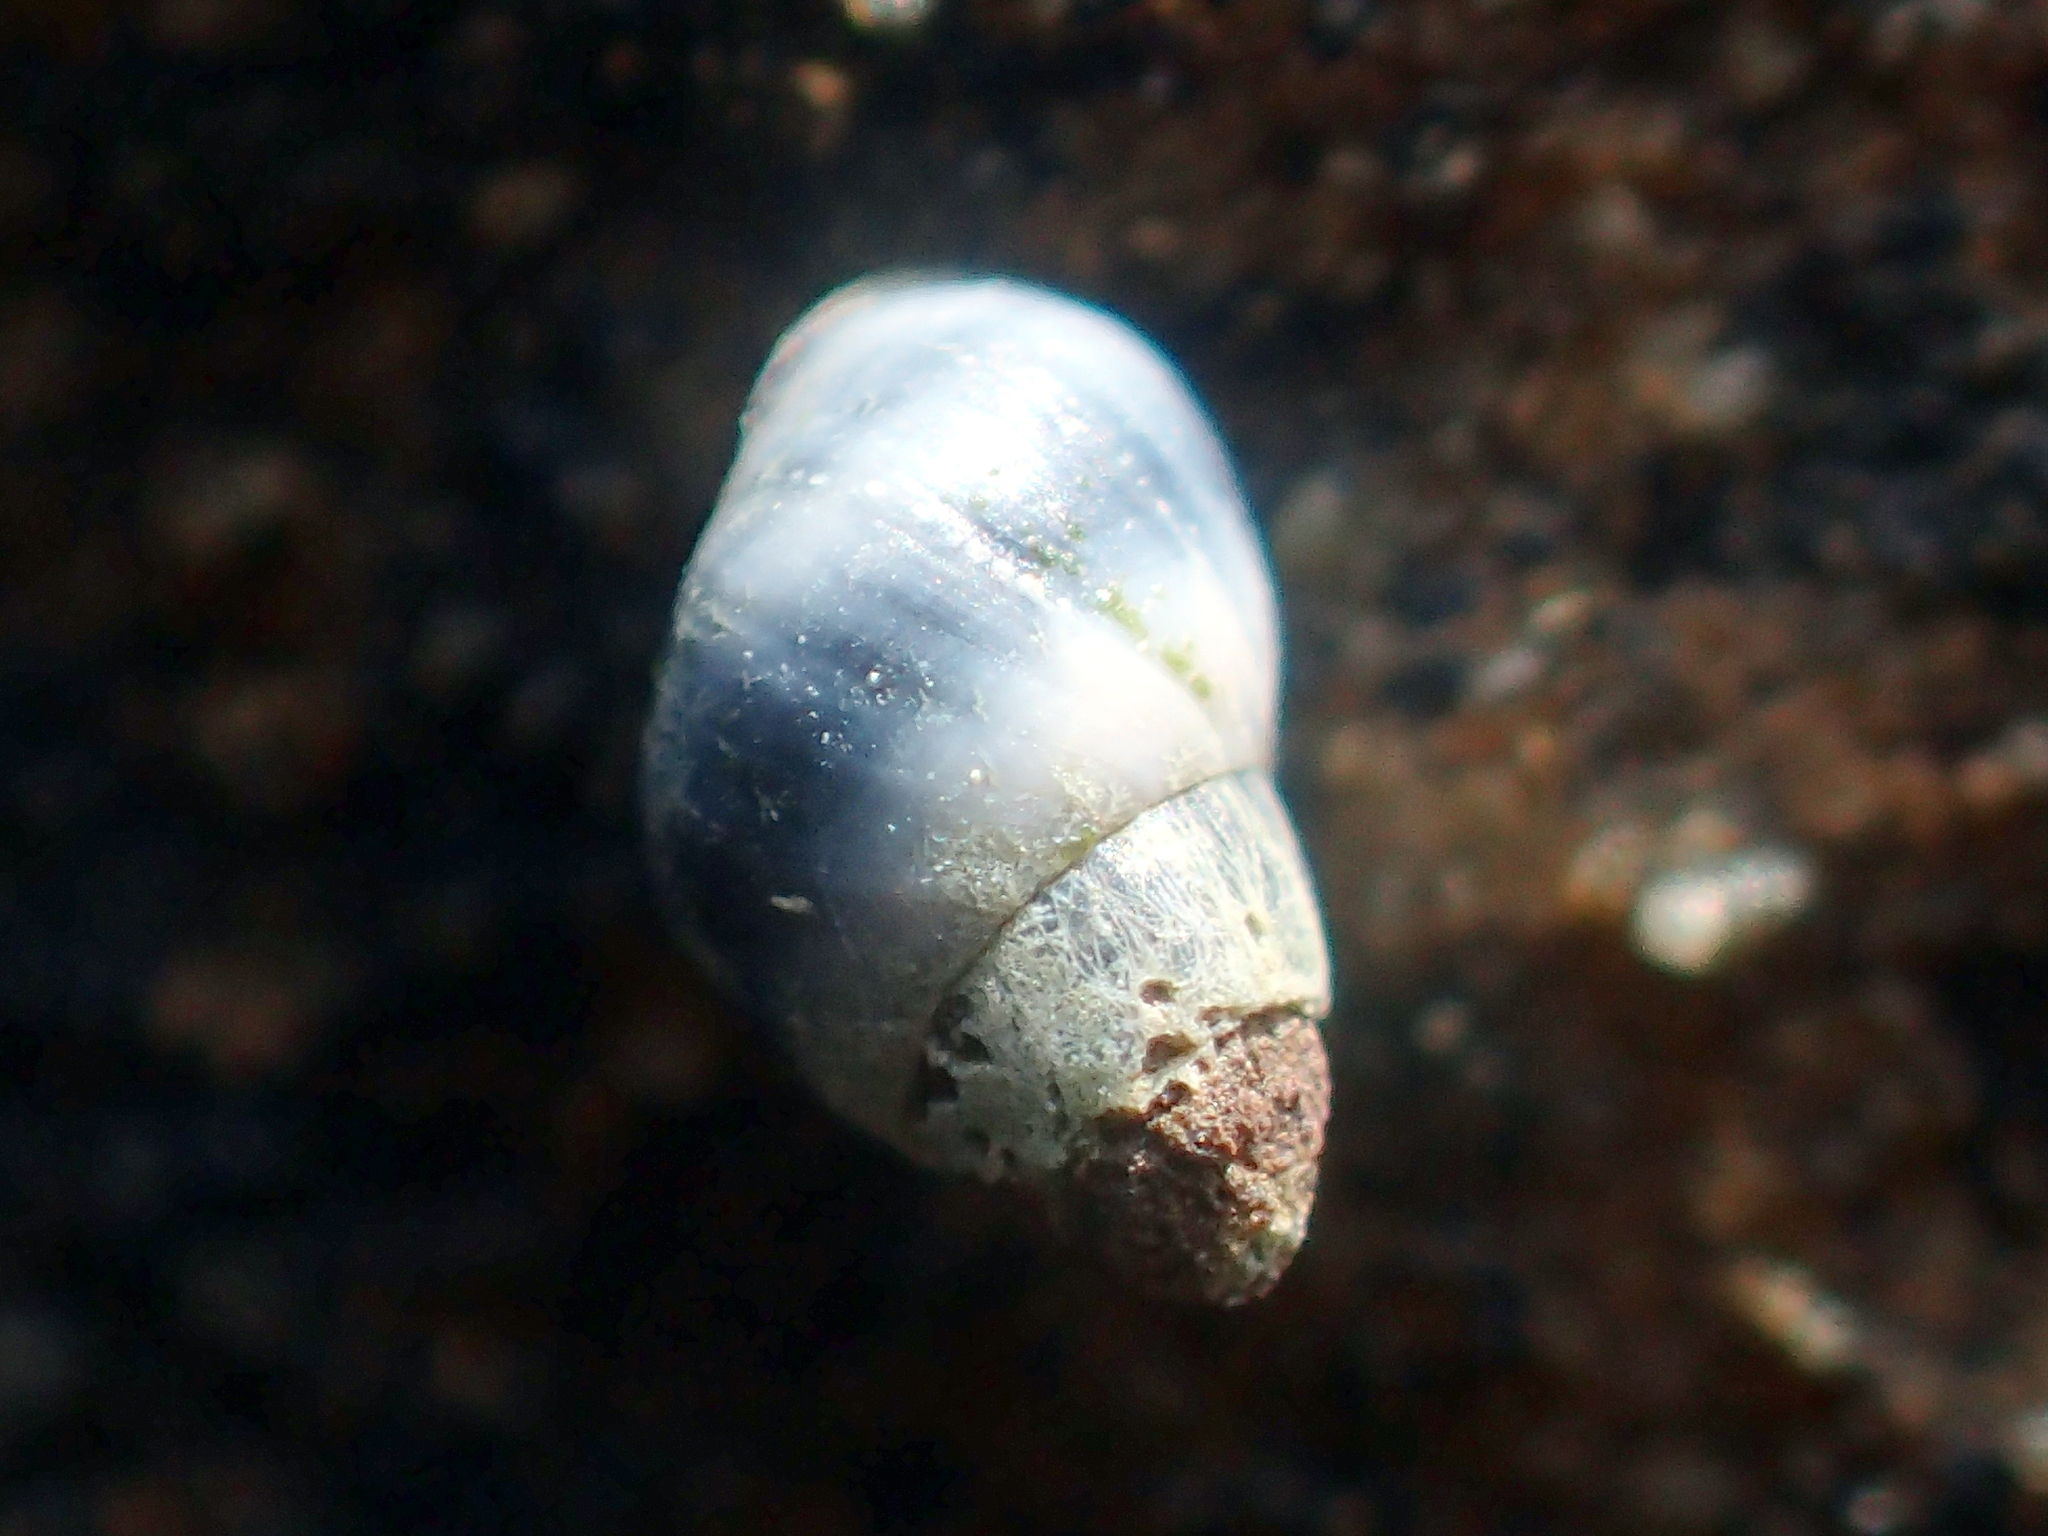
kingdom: Animalia
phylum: Mollusca
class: Gastropoda
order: Littorinimorpha
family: Littorinidae
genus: Austrolittorina
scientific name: Austrolittorina antipodum
